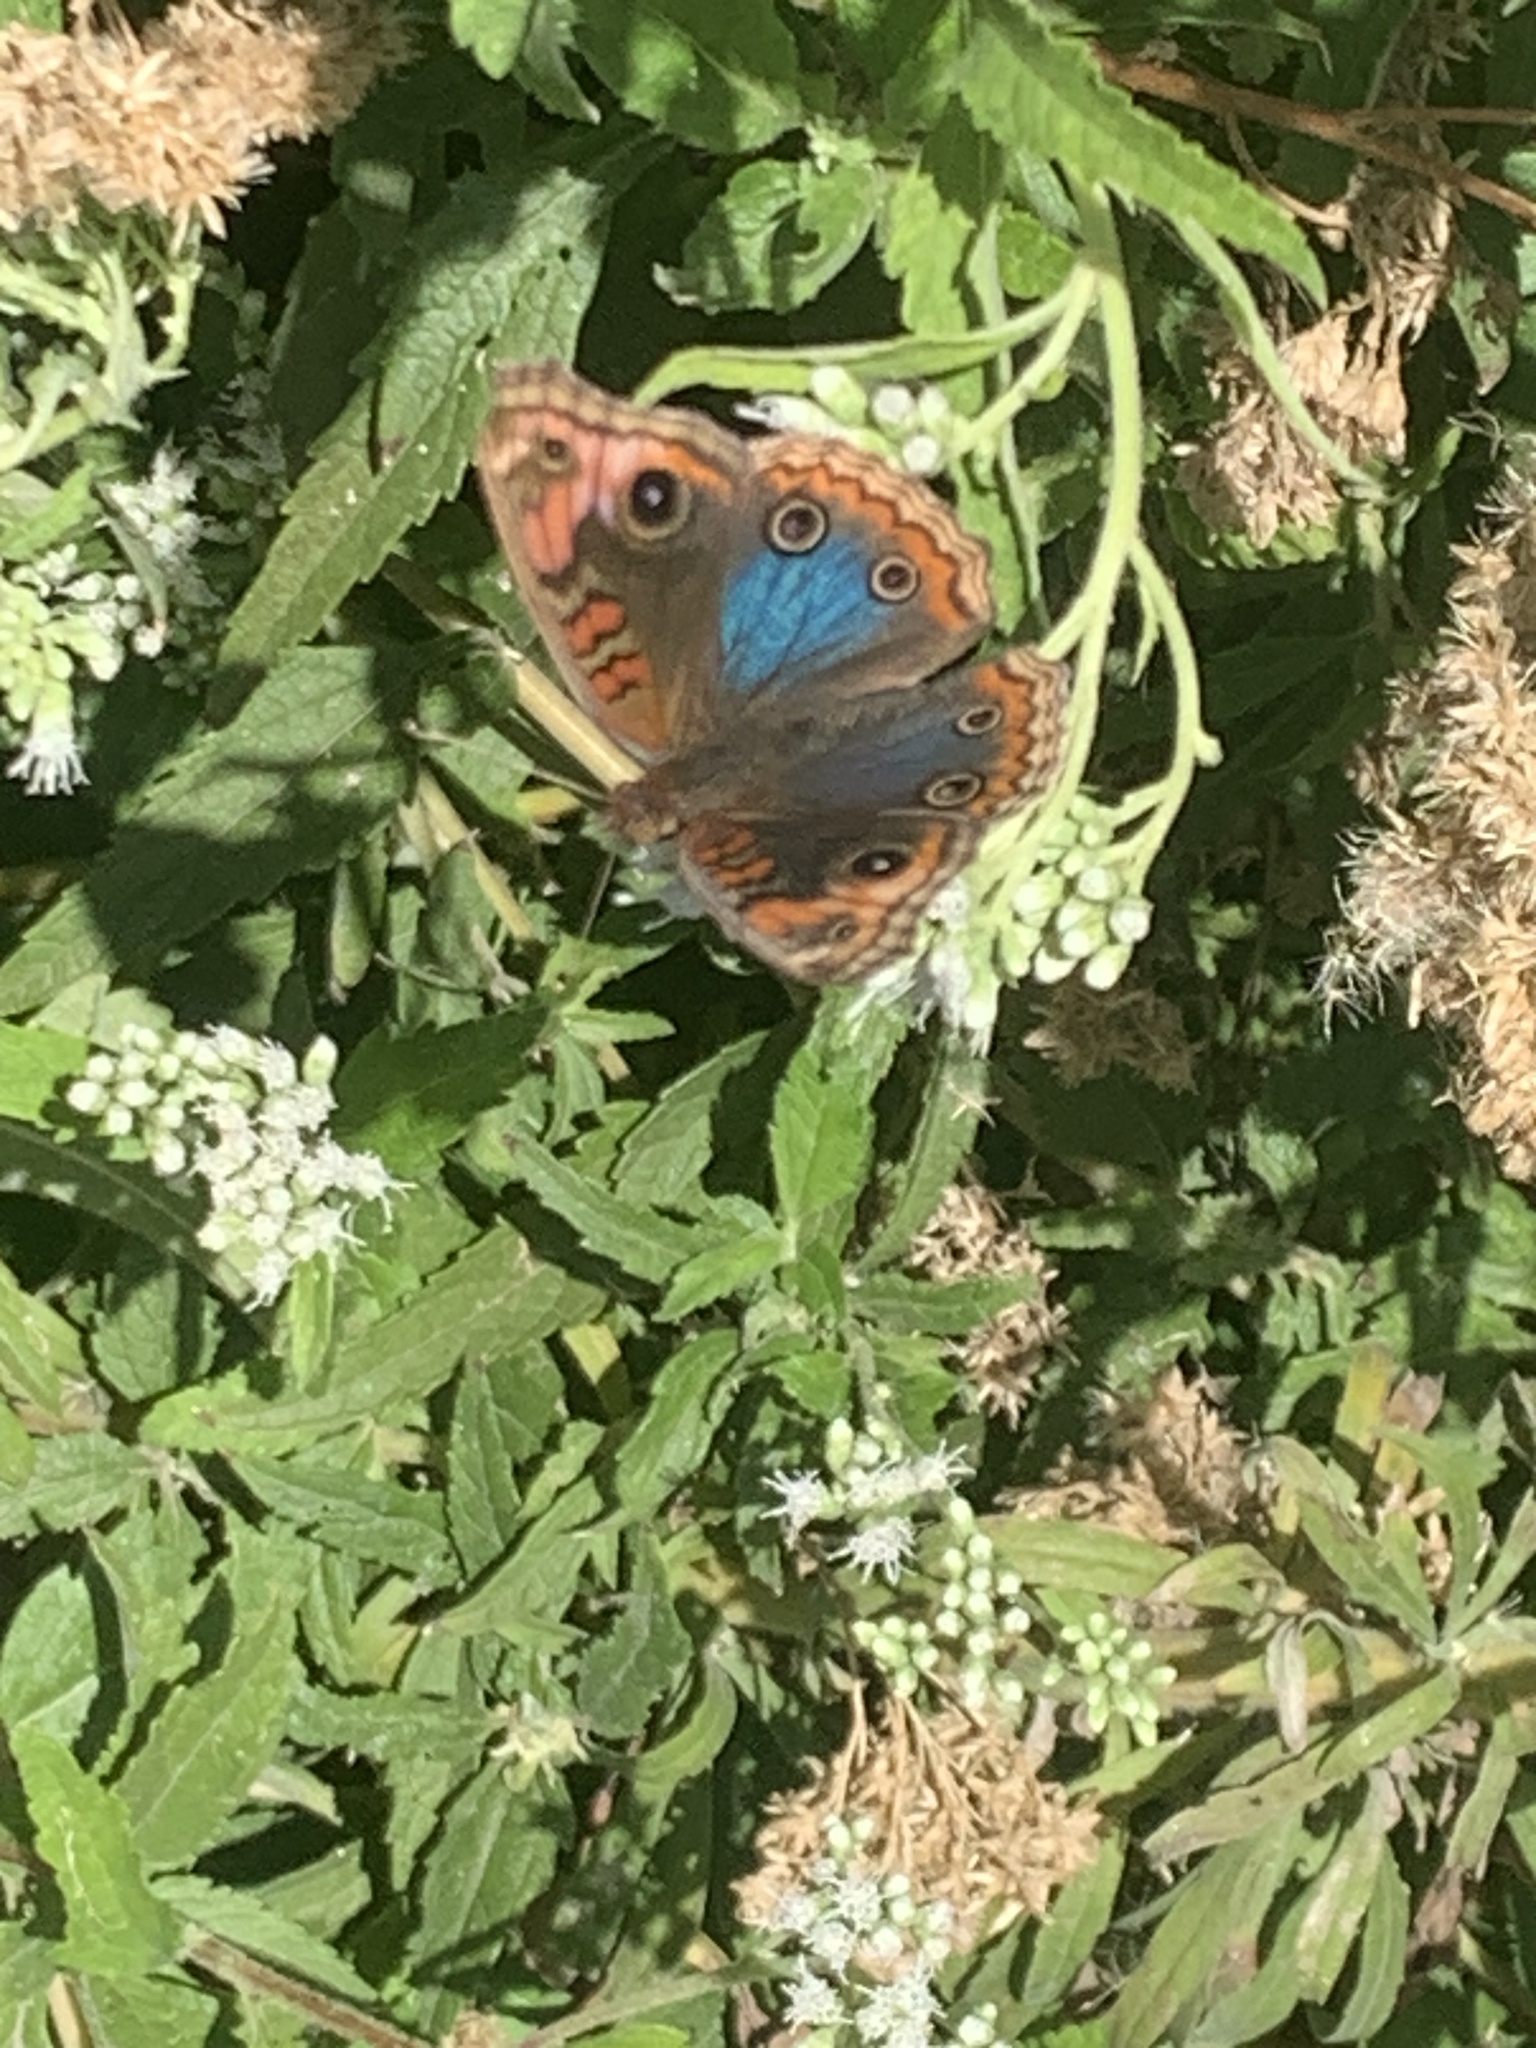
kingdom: Animalia
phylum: Arthropoda
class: Insecta
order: Lepidoptera
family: Nymphalidae
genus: Junonia
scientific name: Junonia lavinia
